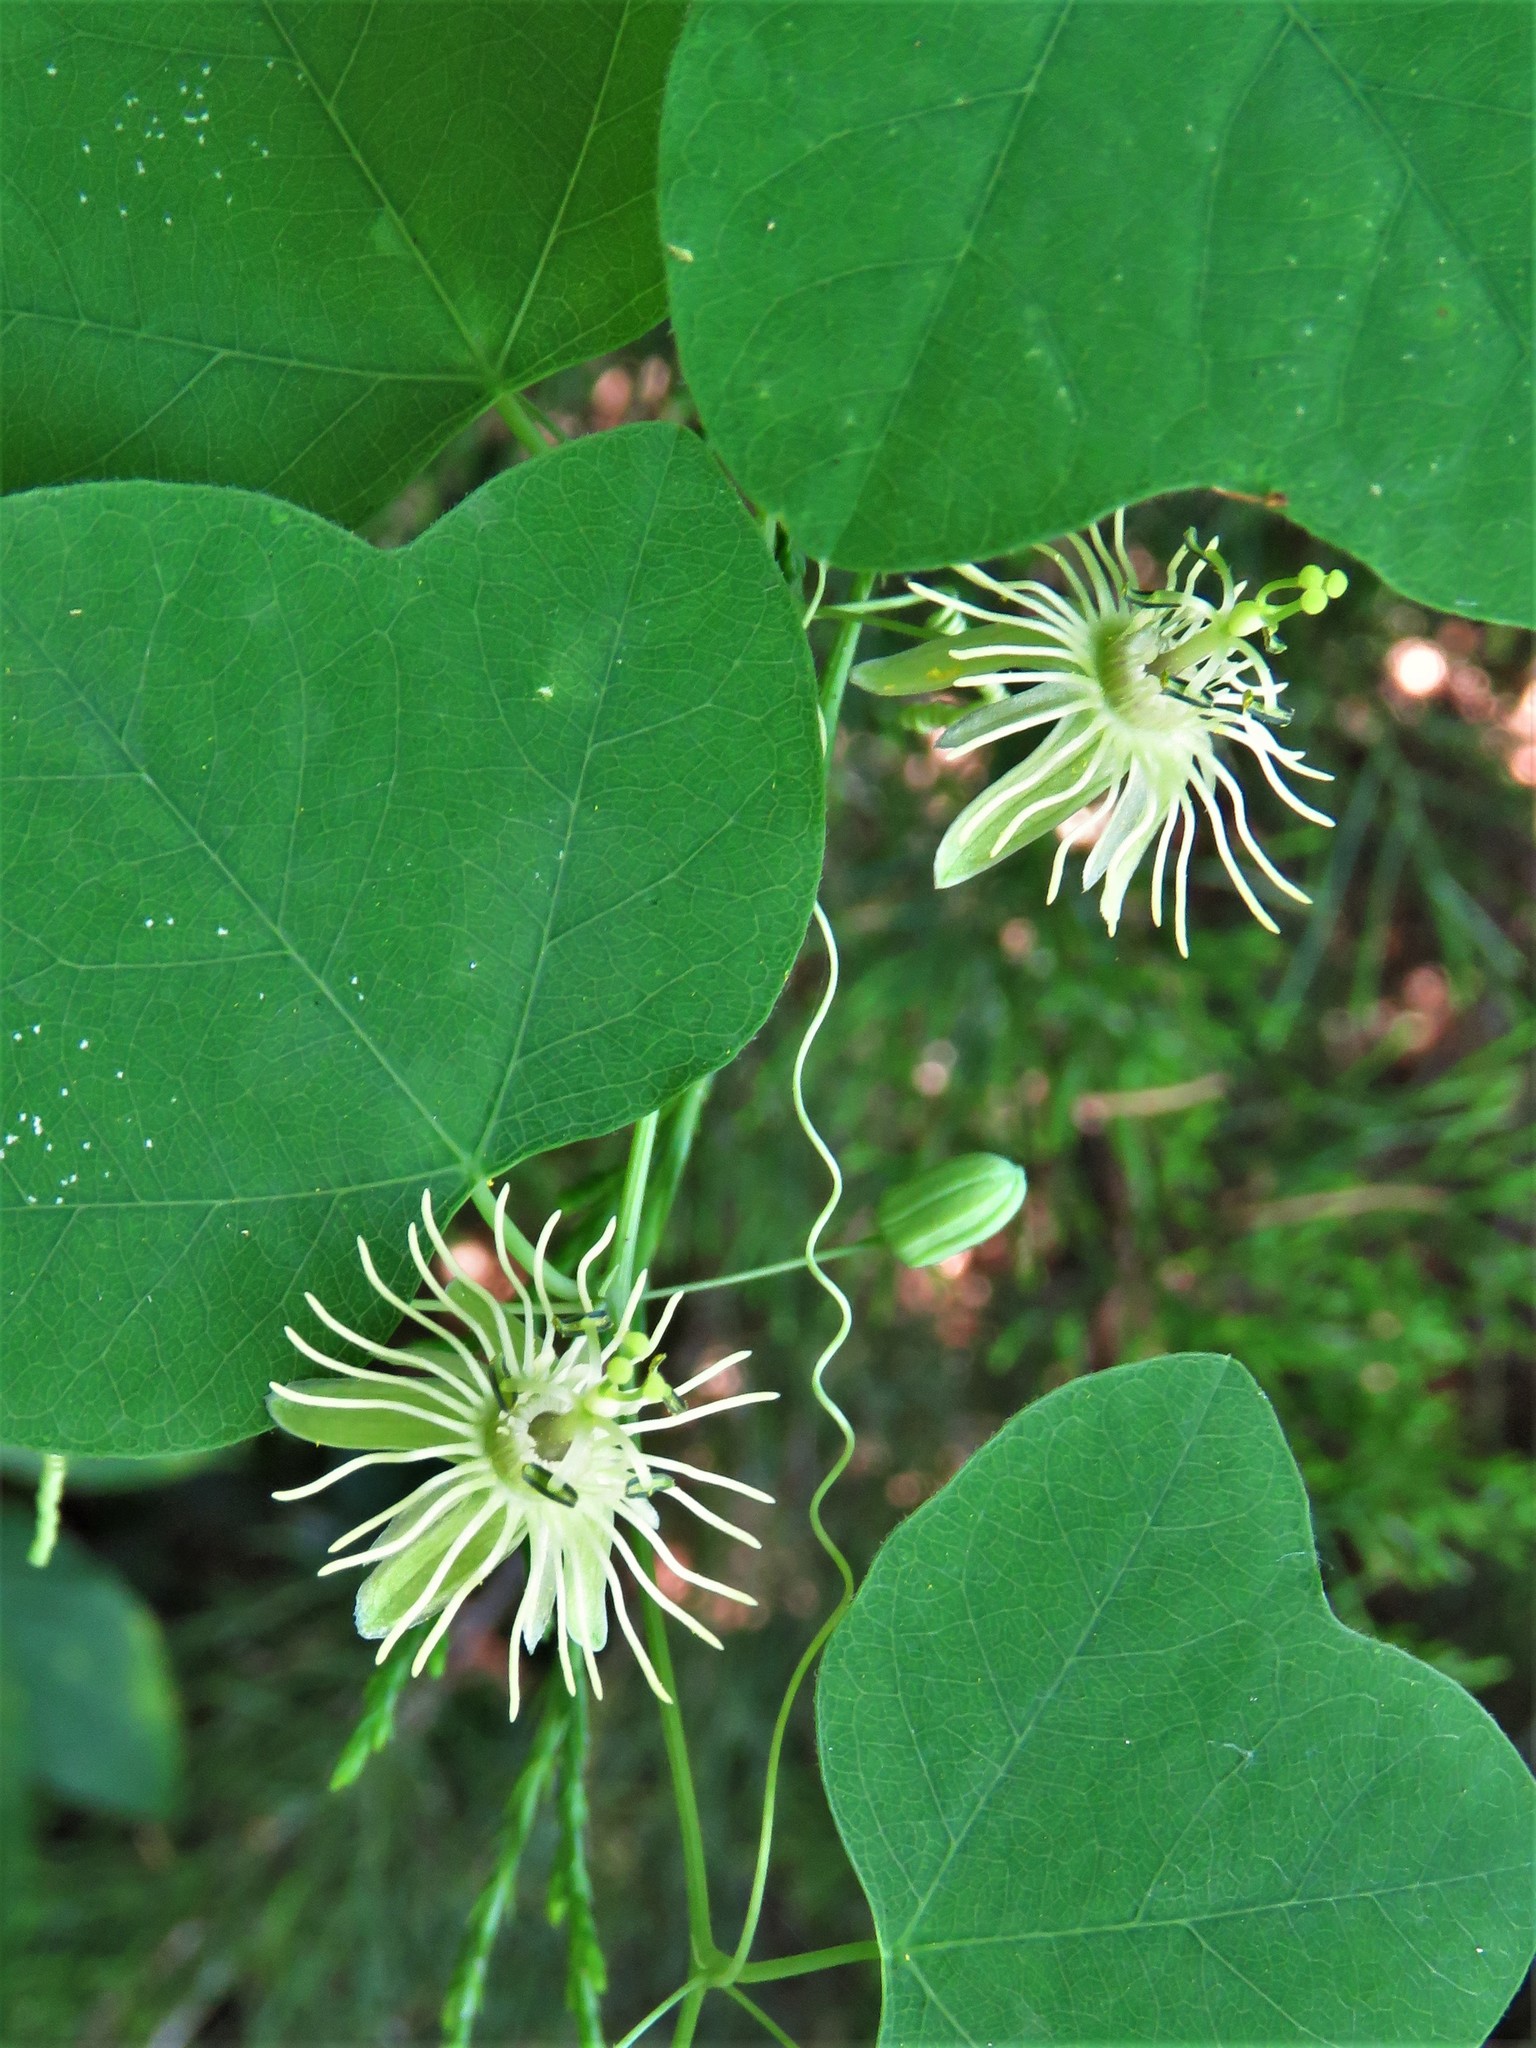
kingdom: Plantae
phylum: Tracheophyta
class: Magnoliopsida
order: Malpighiales
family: Passifloraceae
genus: Passiflora
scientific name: Passiflora lutea
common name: Yellow passionflower
